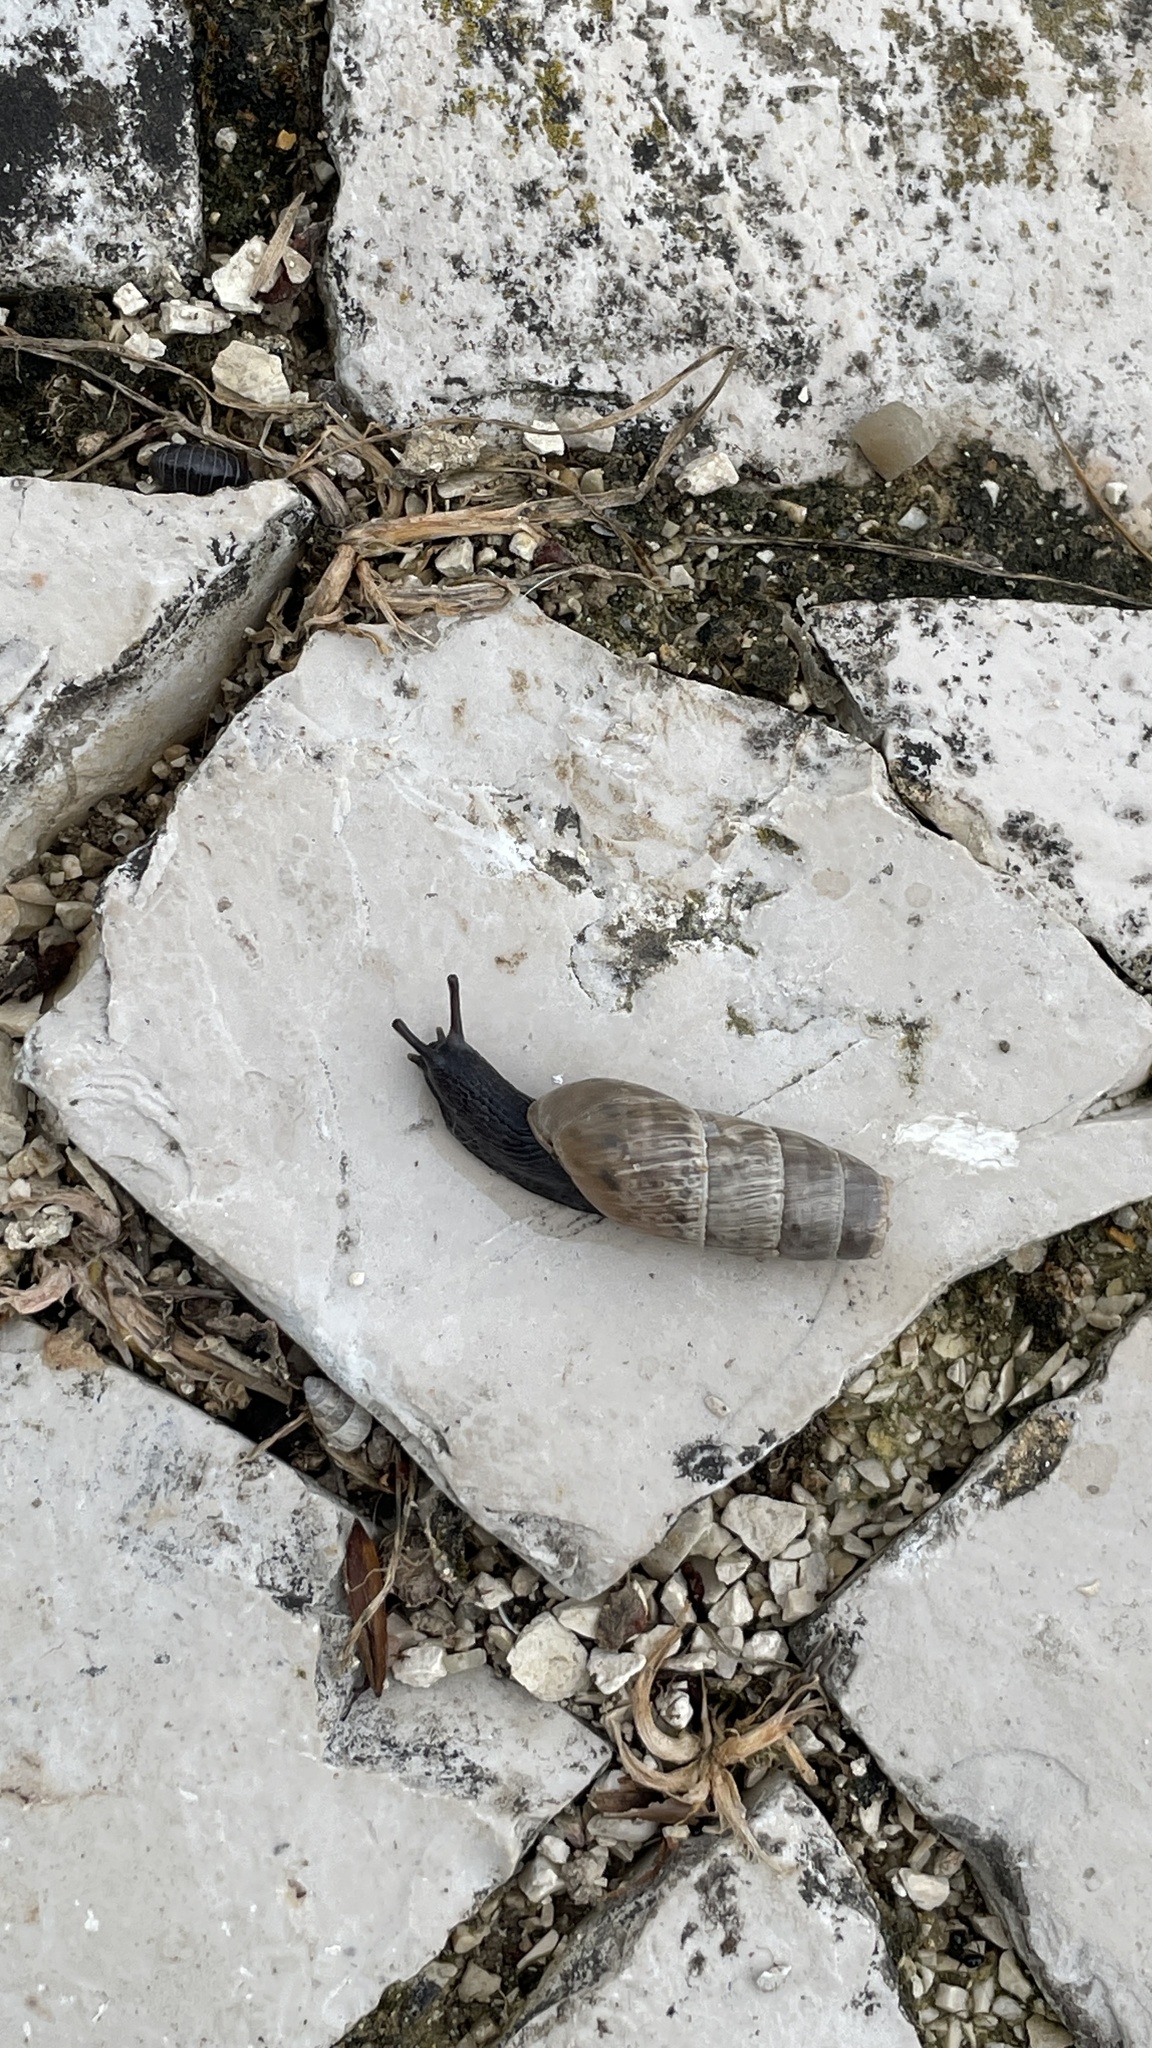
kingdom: Animalia
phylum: Mollusca
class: Gastropoda
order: Stylommatophora
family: Achatinidae
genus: Rumina
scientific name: Rumina decollata
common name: Decollate snail
